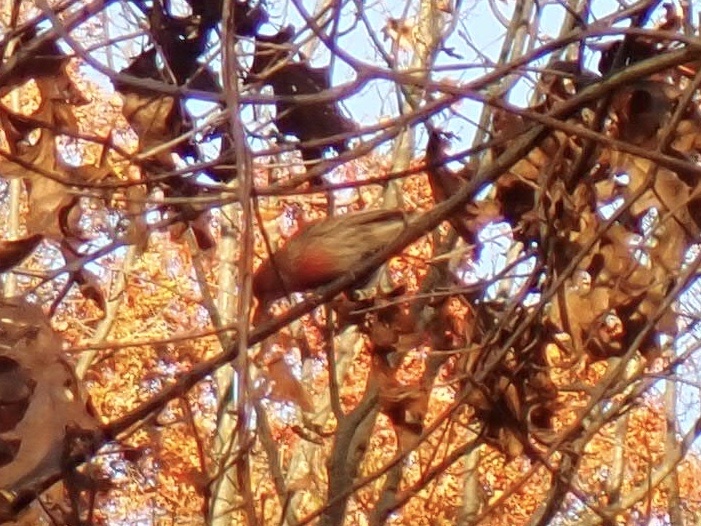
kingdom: Animalia
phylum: Chordata
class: Aves
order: Passeriformes
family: Fringillidae
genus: Haemorhous
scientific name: Haemorhous mexicanus
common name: House finch
